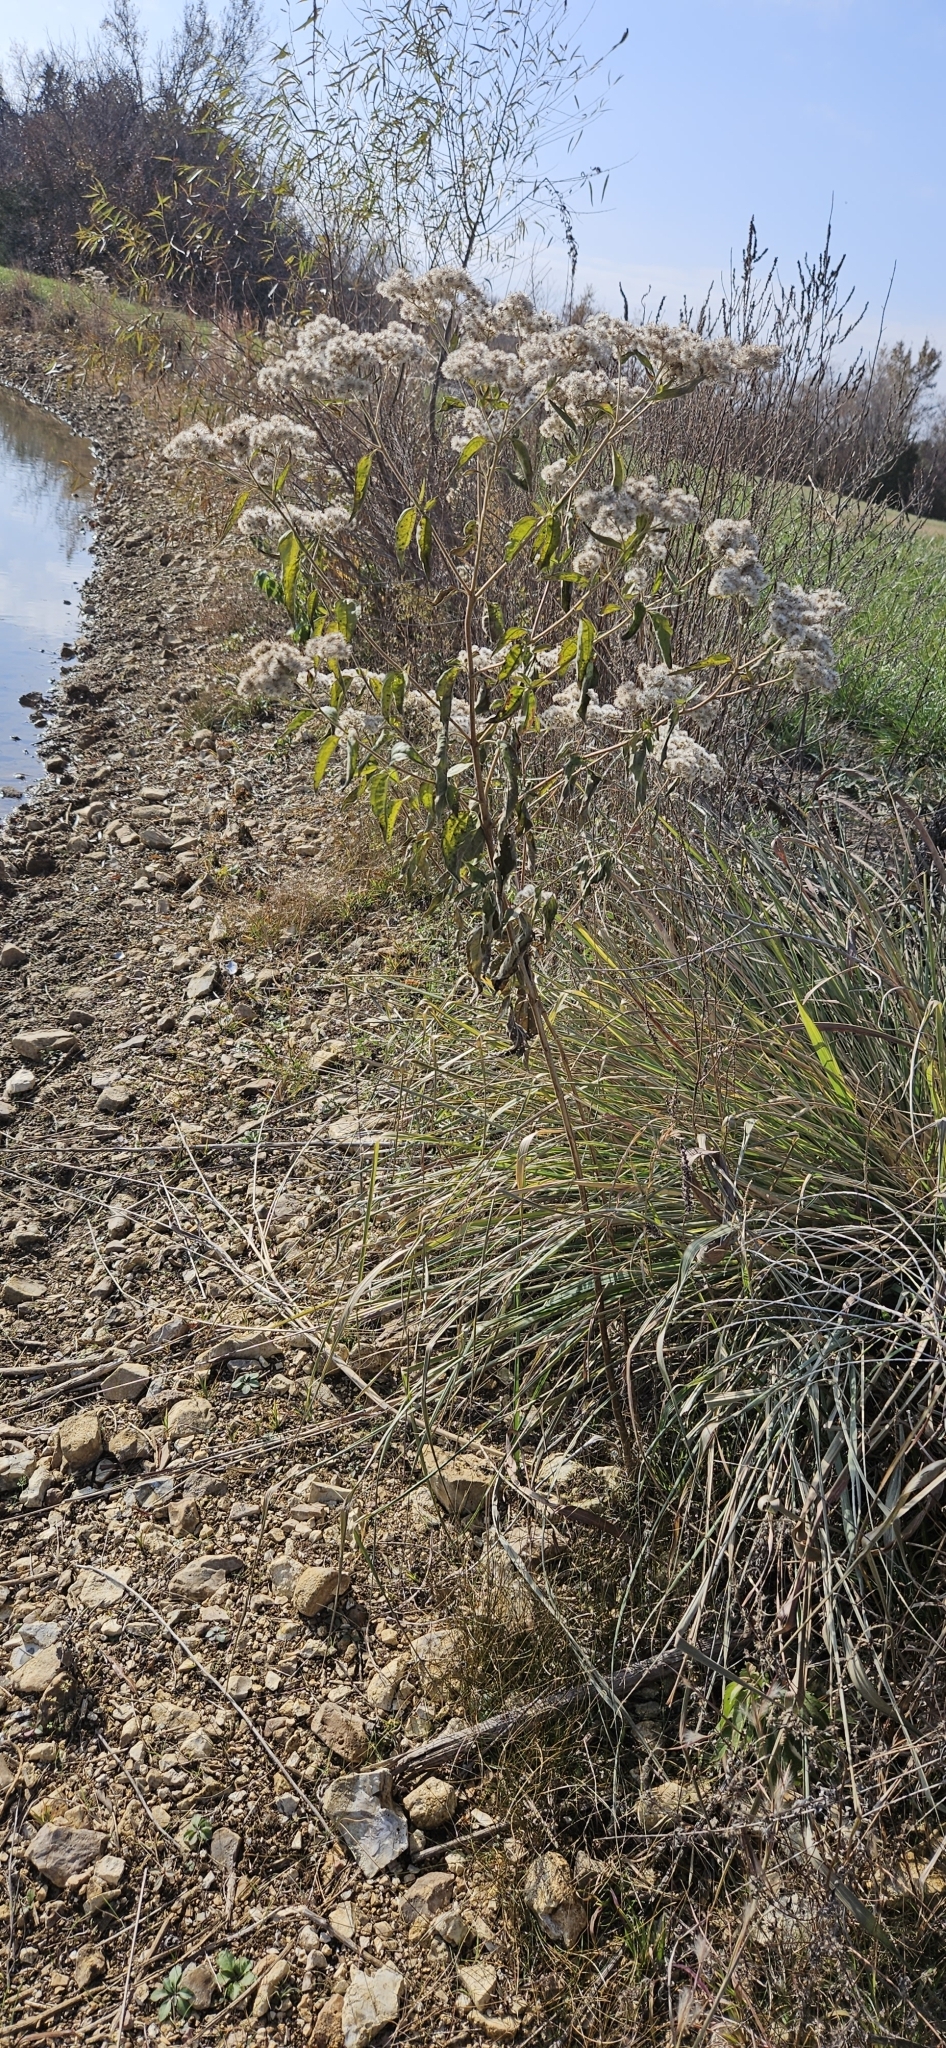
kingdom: Plantae
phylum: Tracheophyta
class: Magnoliopsida
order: Asterales
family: Asteraceae
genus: Eupatorium
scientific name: Eupatorium serotinum
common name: Late boneset
